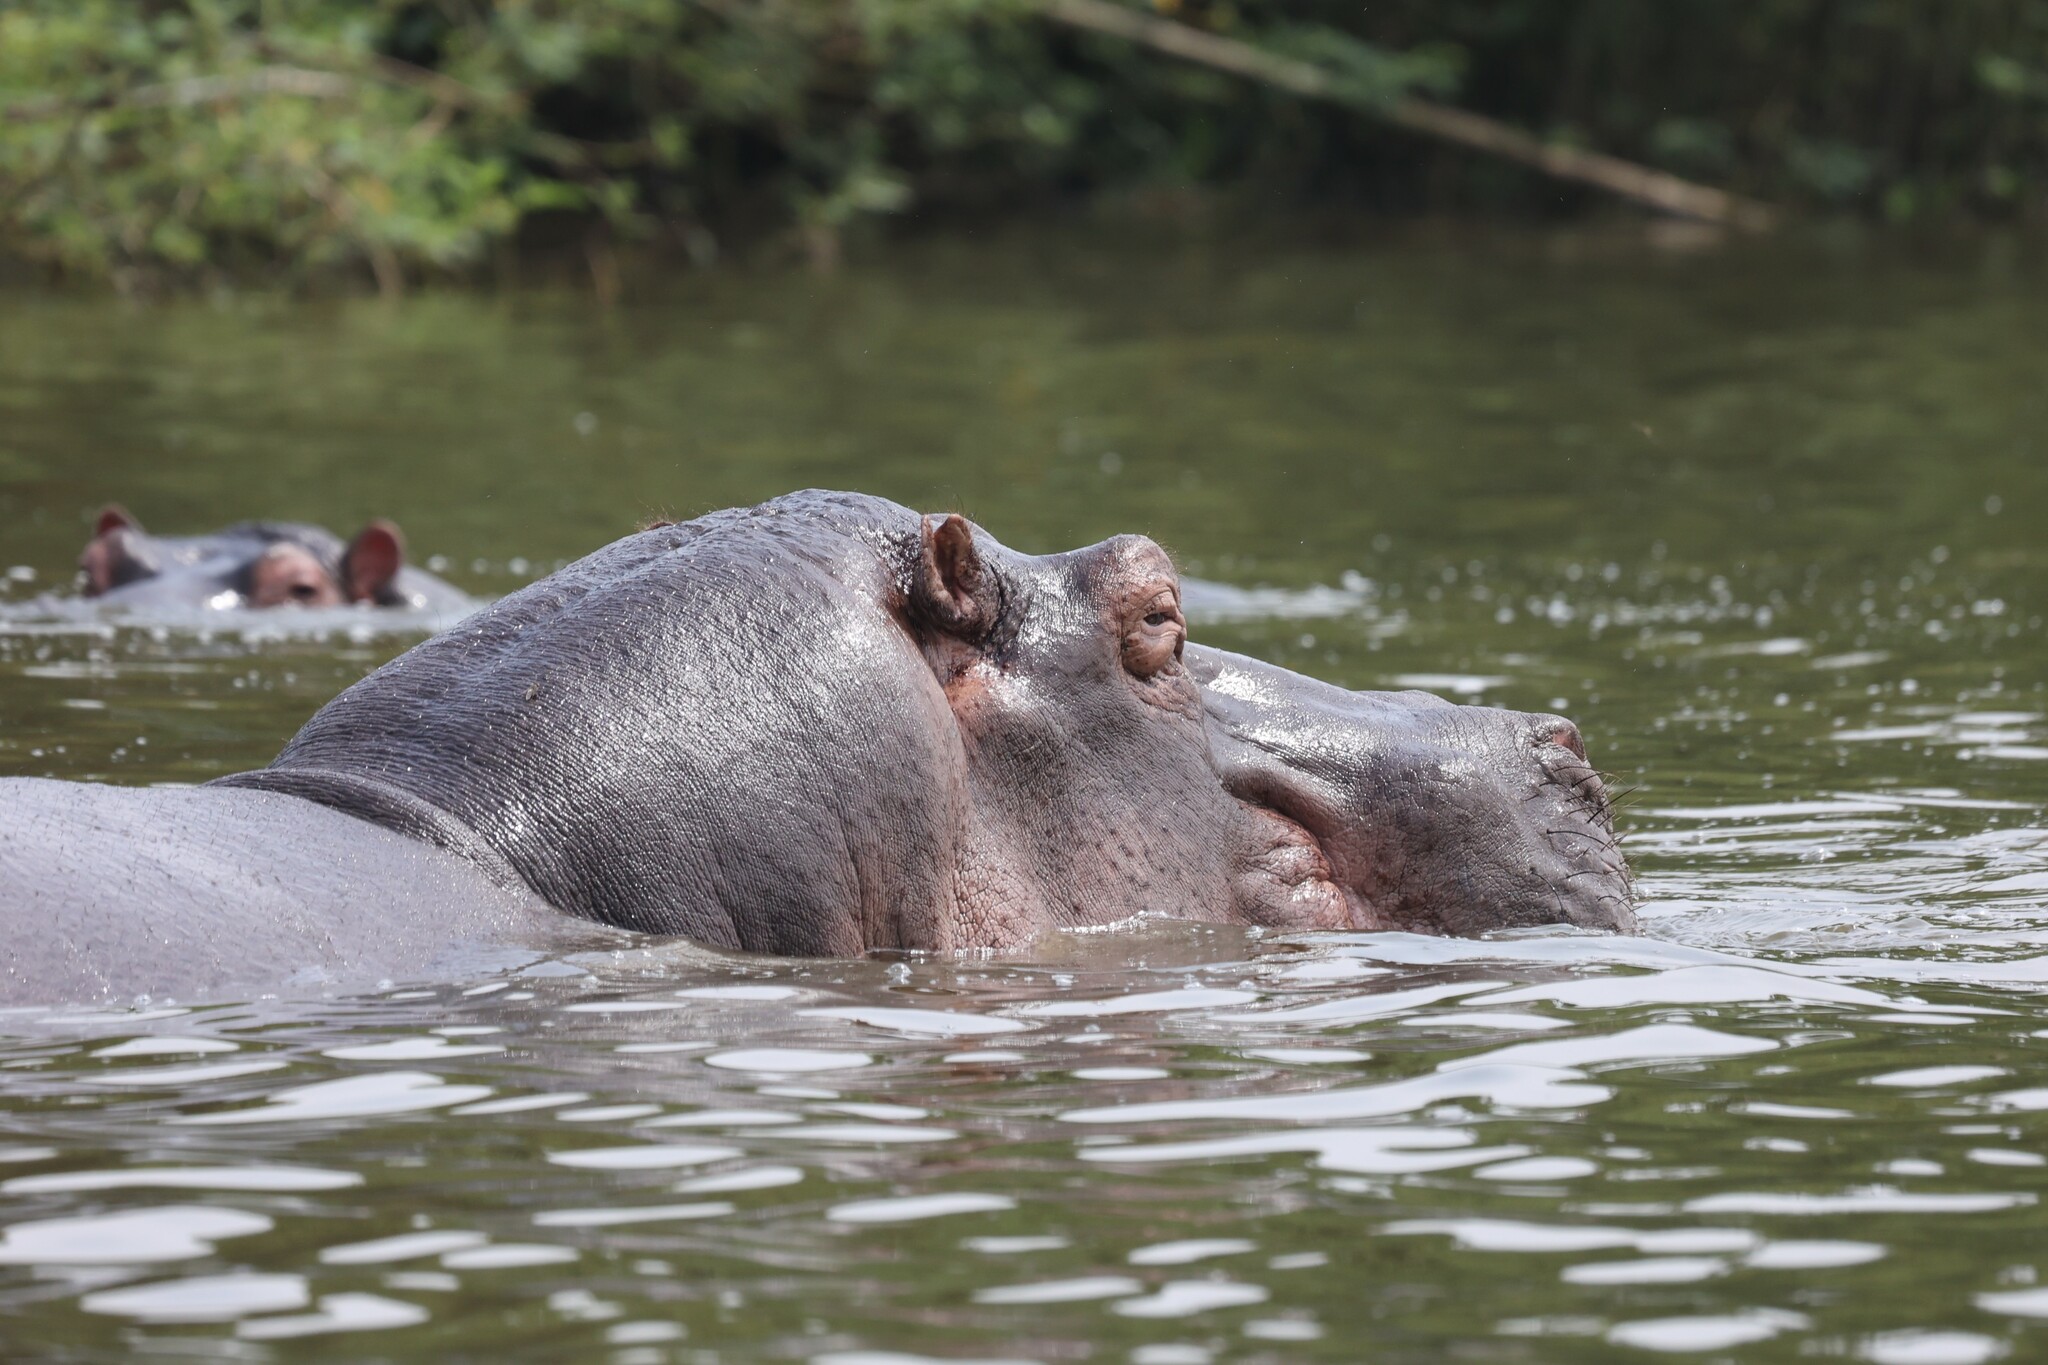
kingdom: Animalia
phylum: Chordata
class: Mammalia
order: Artiodactyla
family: Hippopotamidae
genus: Hippopotamus
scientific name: Hippopotamus amphibius
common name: Common hippopotamus
